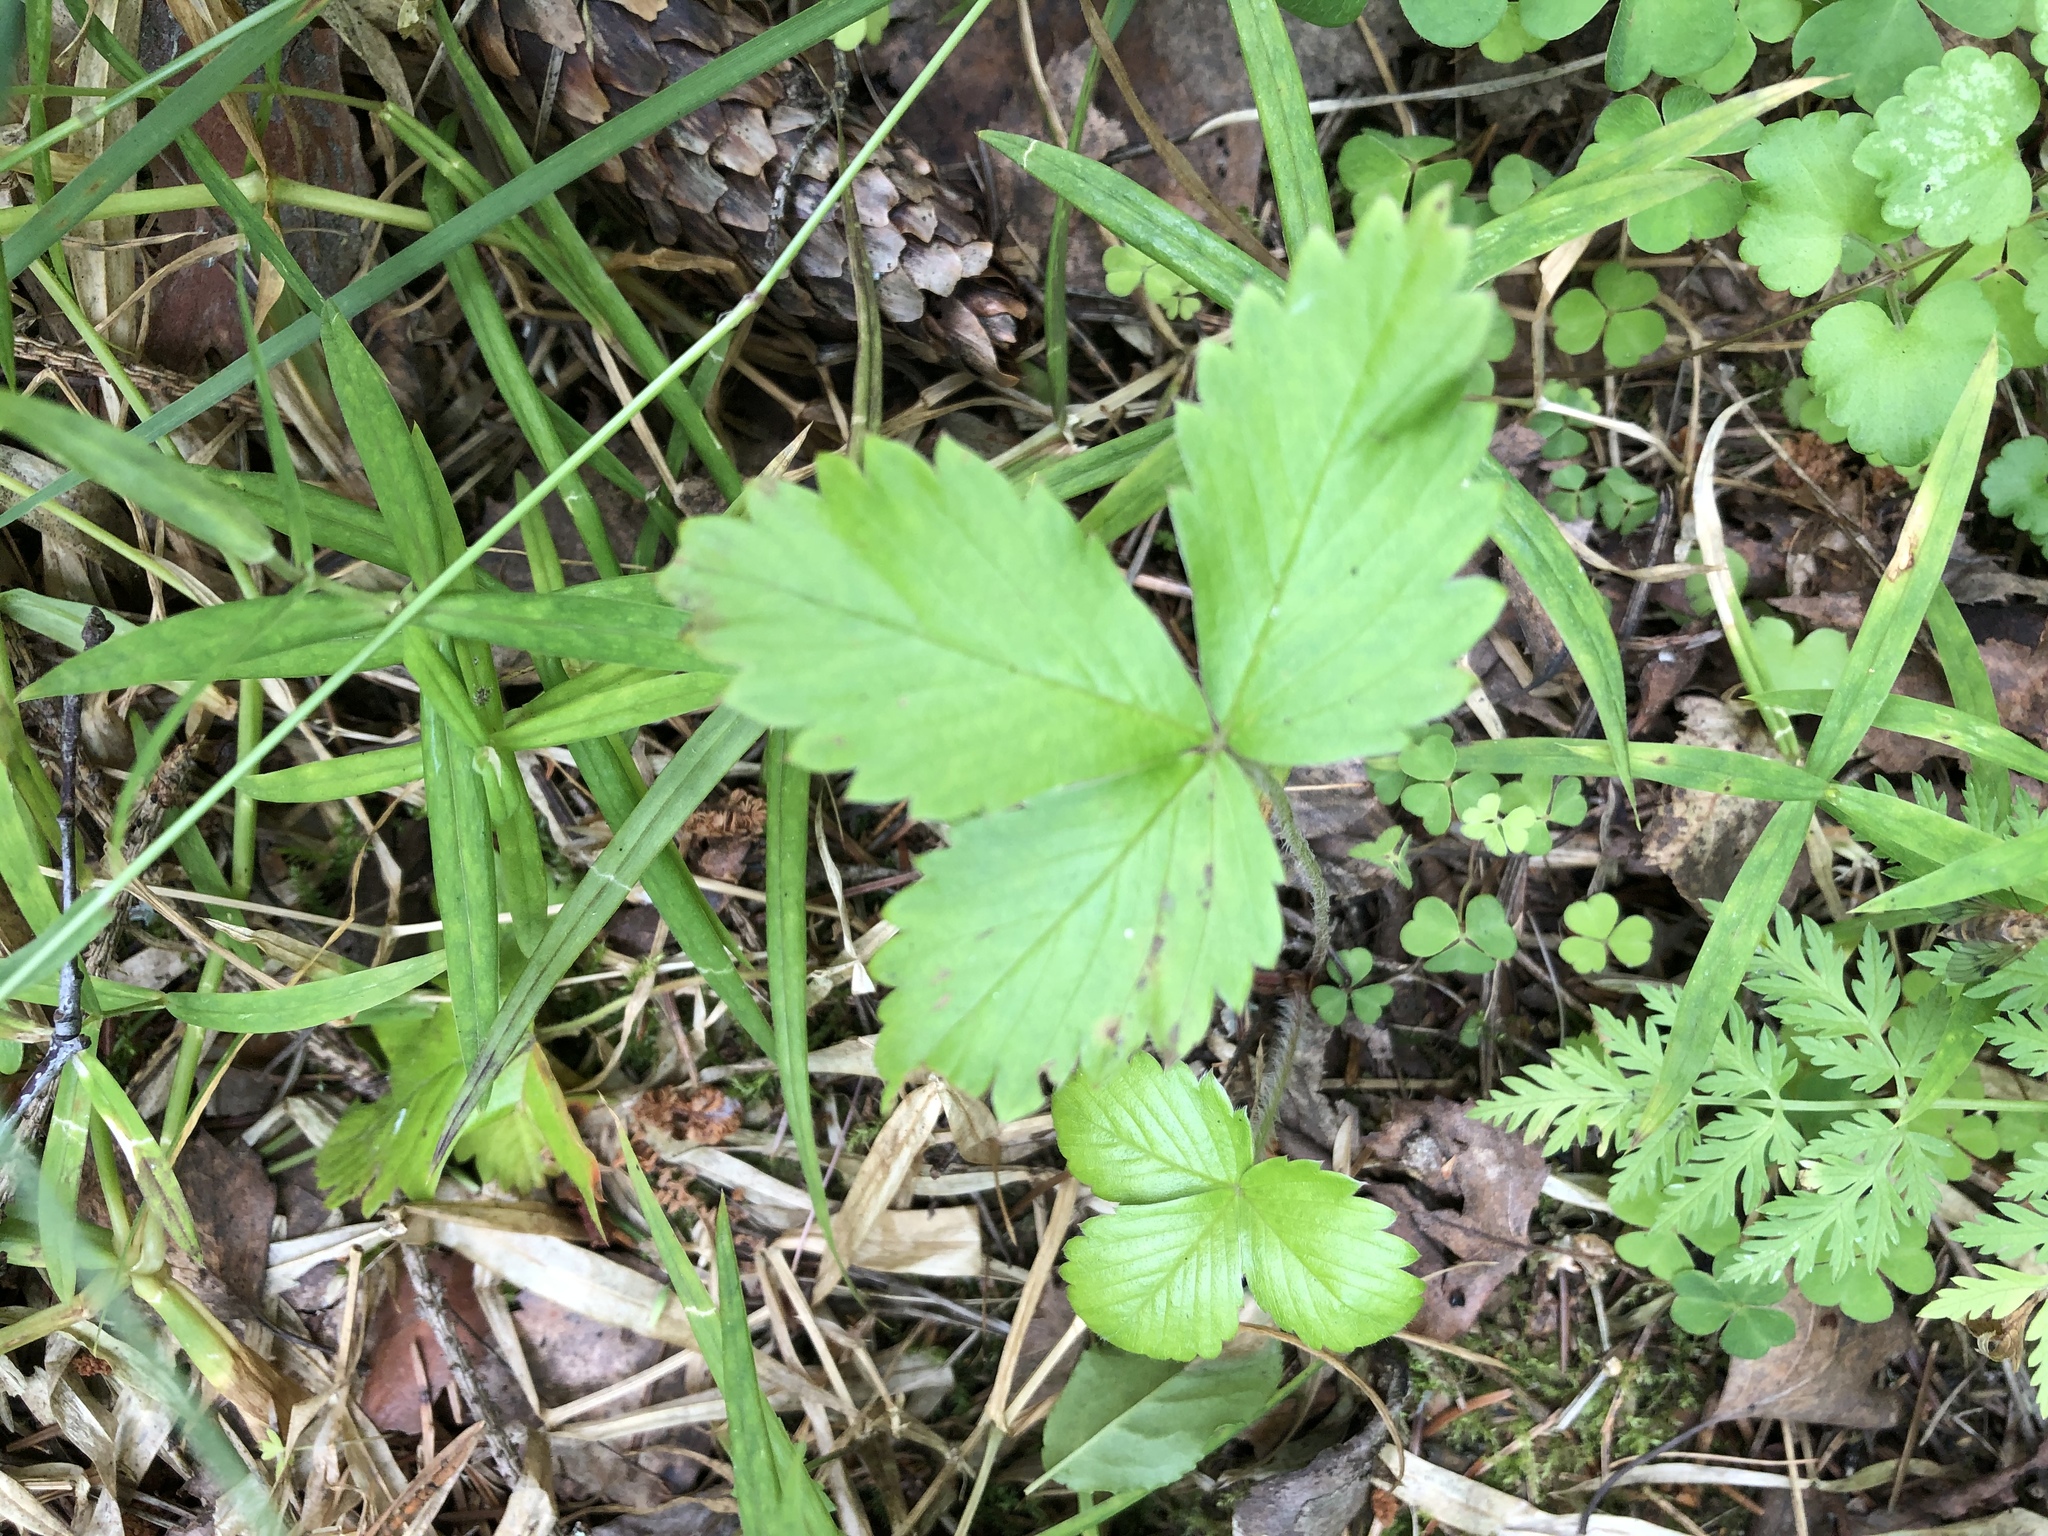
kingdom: Plantae
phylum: Tracheophyta
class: Magnoliopsida
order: Rosales
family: Rosaceae
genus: Fragaria
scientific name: Fragaria vesca
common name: Wild strawberry
